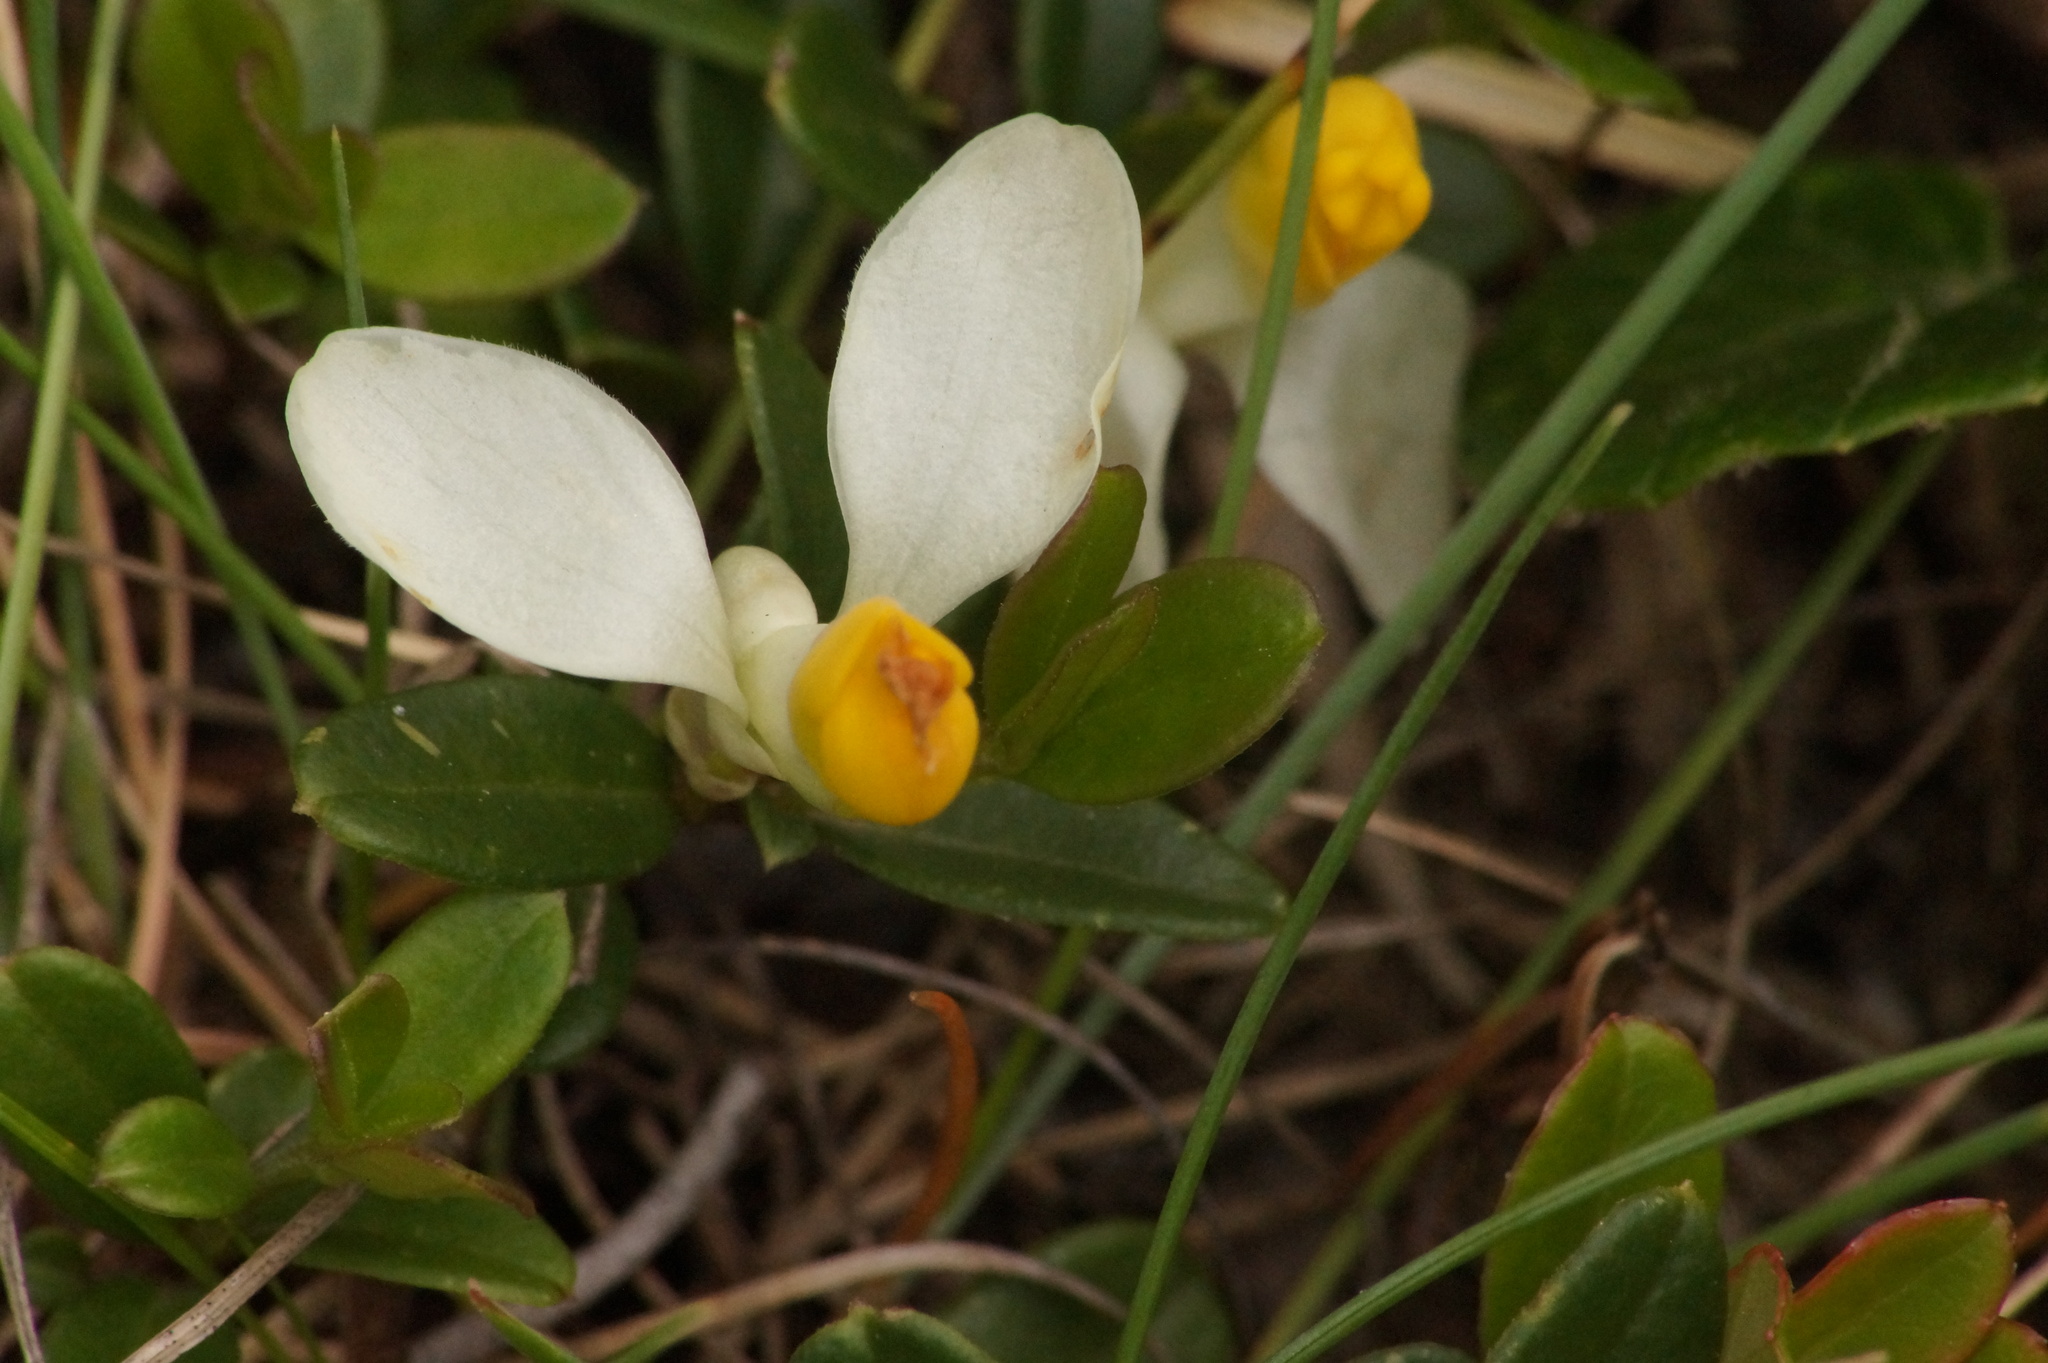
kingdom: Plantae
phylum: Tracheophyta
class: Magnoliopsida
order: Fabales
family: Polygalaceae
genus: Polygaloides
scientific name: Polygaloides chamaebuxus
